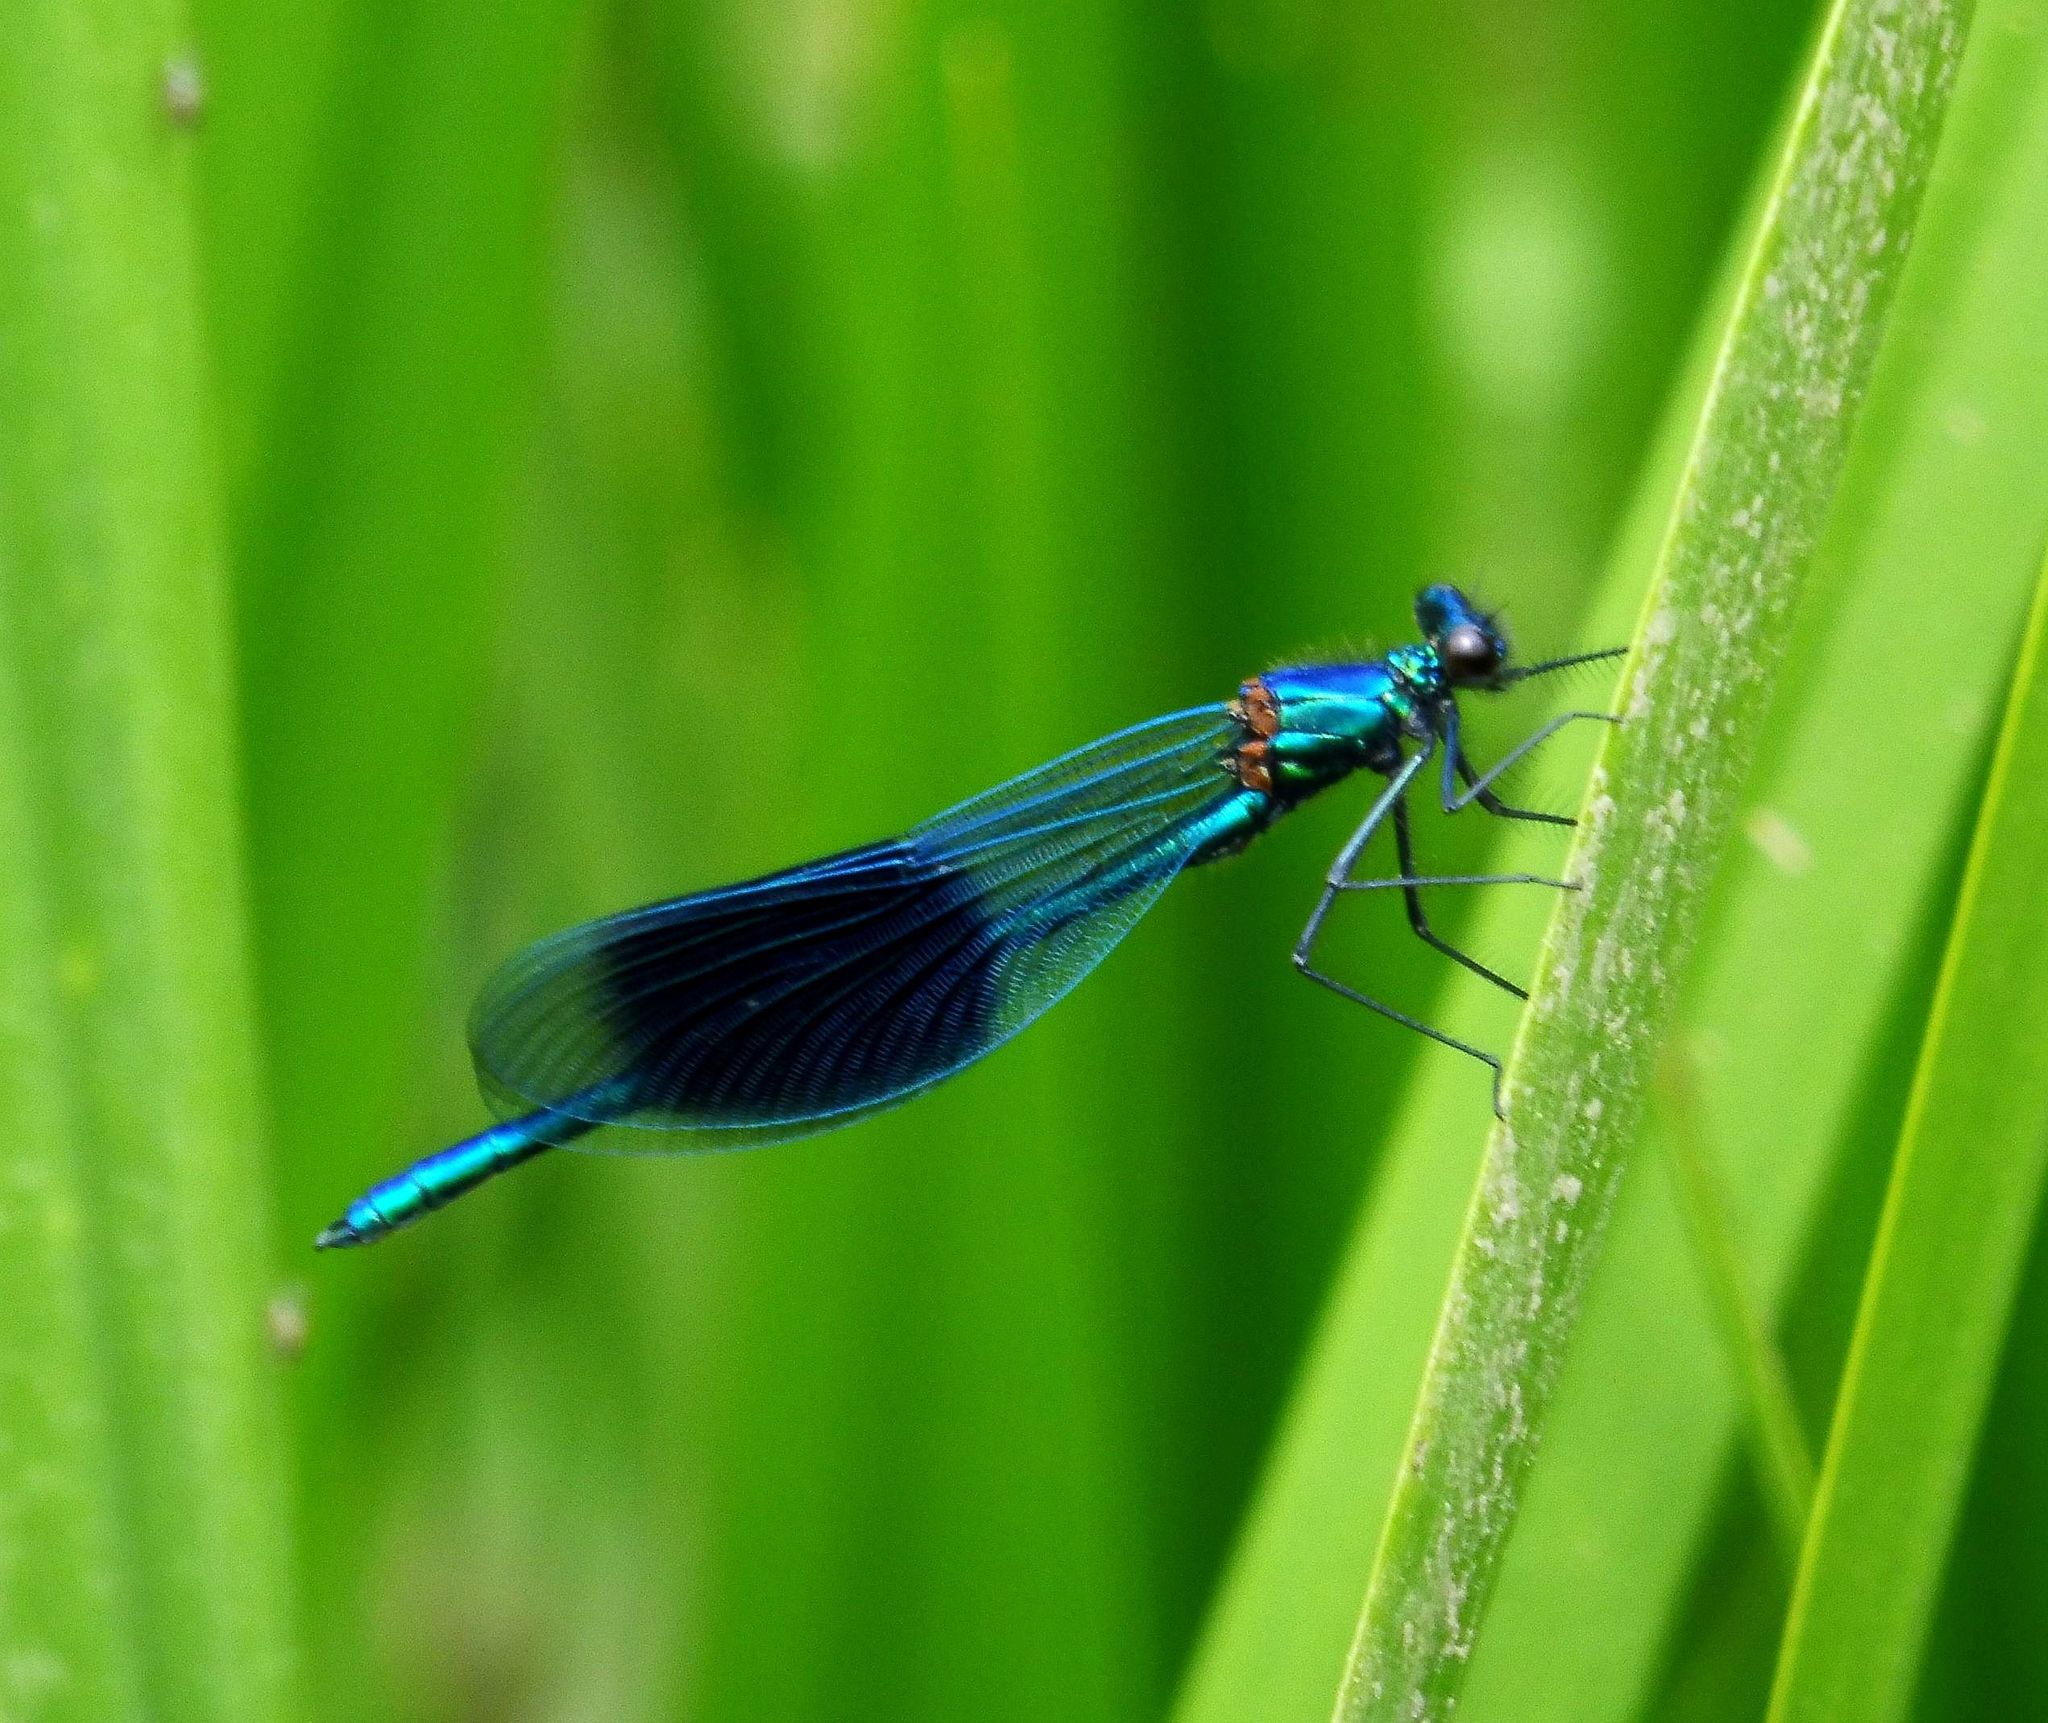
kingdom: Animalia
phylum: Arthropoda
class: Insecta
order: Odonata
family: Calopterygidae
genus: Calopteryx
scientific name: Calopteryx splendens
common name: Banded demoiselle
